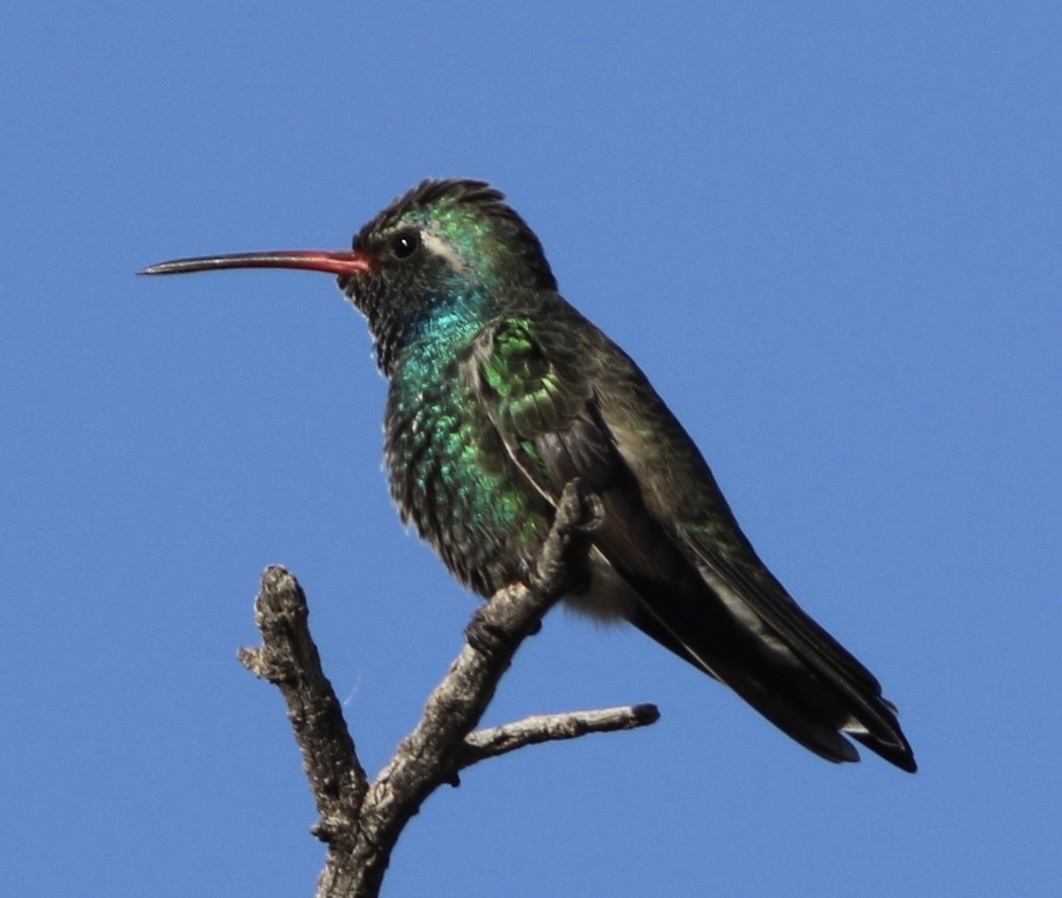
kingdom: Animalia
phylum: Chordata
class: Aves
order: Apodiformes
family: Trochilidae
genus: Cynanthus
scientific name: Cynanthus latirostris
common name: Broad-billed hummingbird
